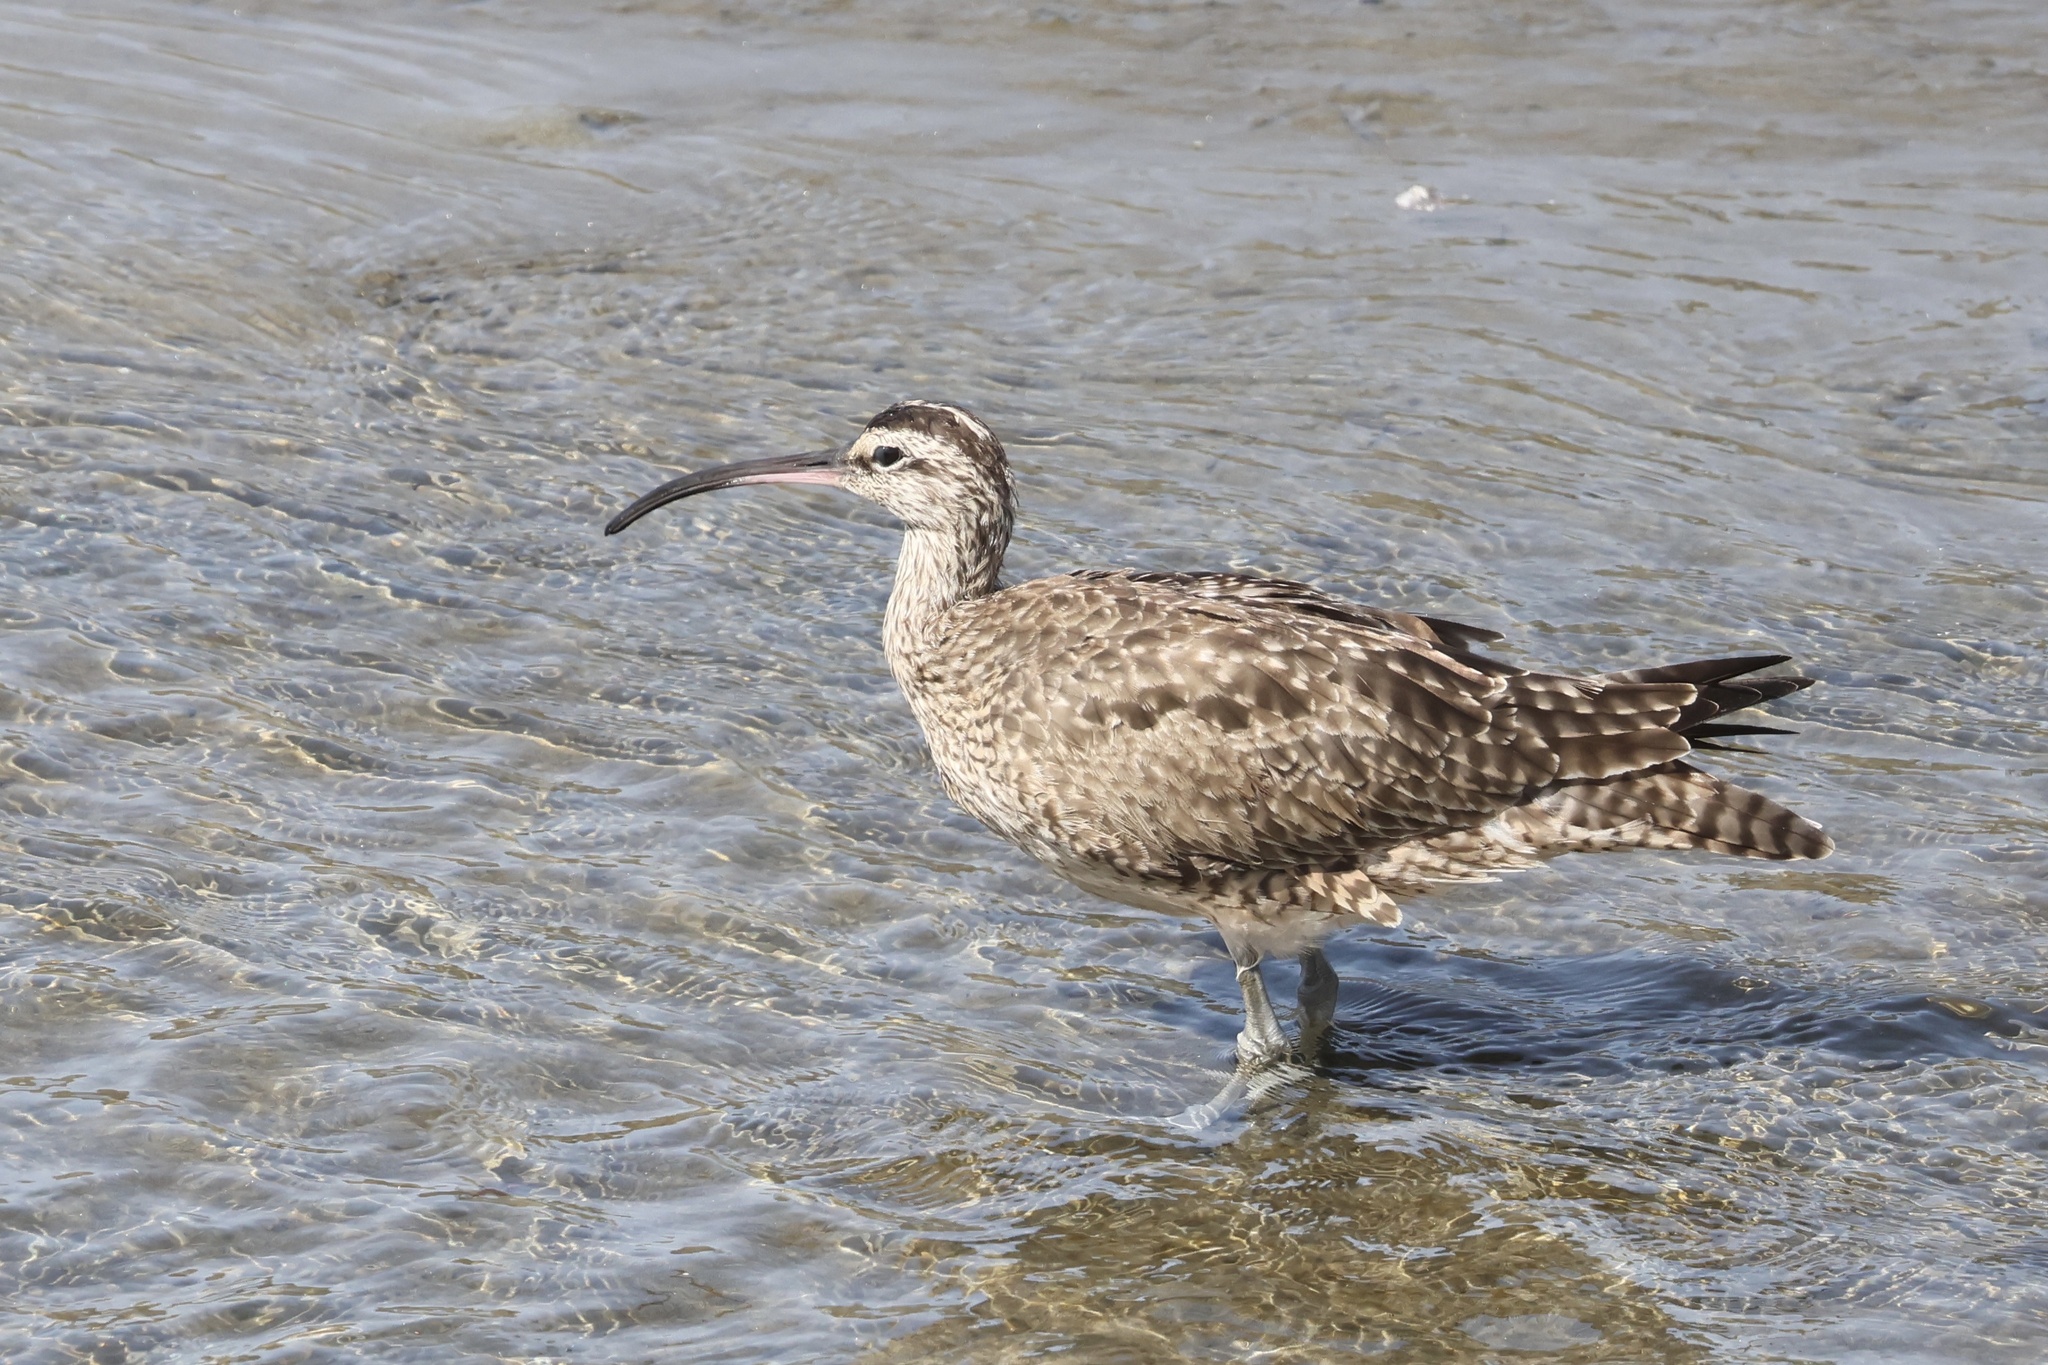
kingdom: Animalia
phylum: Chordata
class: Aves
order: Charadriiformes
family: Scolopacidae
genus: Numenius
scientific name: Numenius phaeopus
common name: Whimbrel
